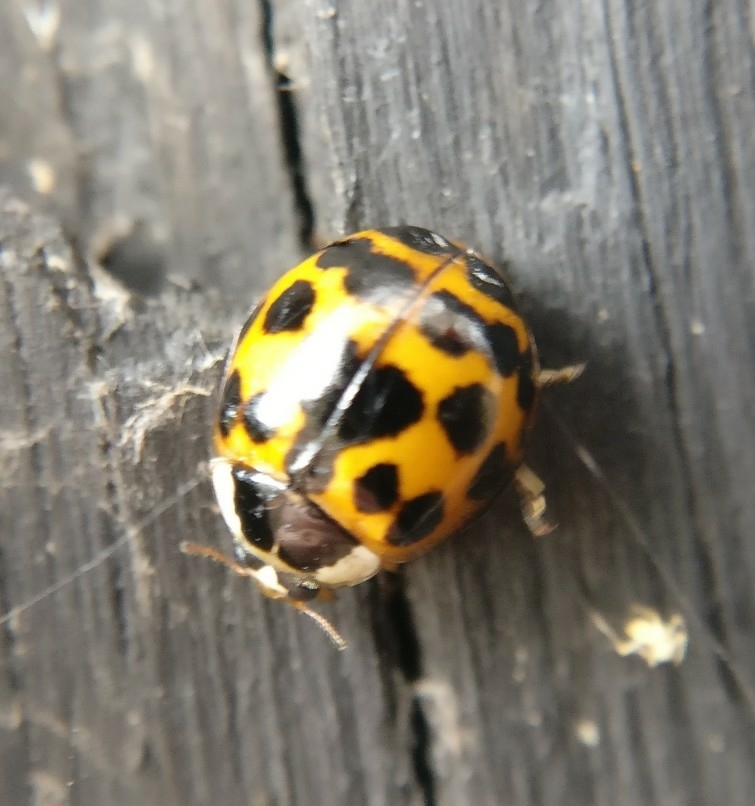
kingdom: Animalia
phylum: Arthropoda
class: Insecta
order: Coleoptera
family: Coccinellidae
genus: Harmonia
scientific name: Harmonia axyridis
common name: Harlequin ladybird
